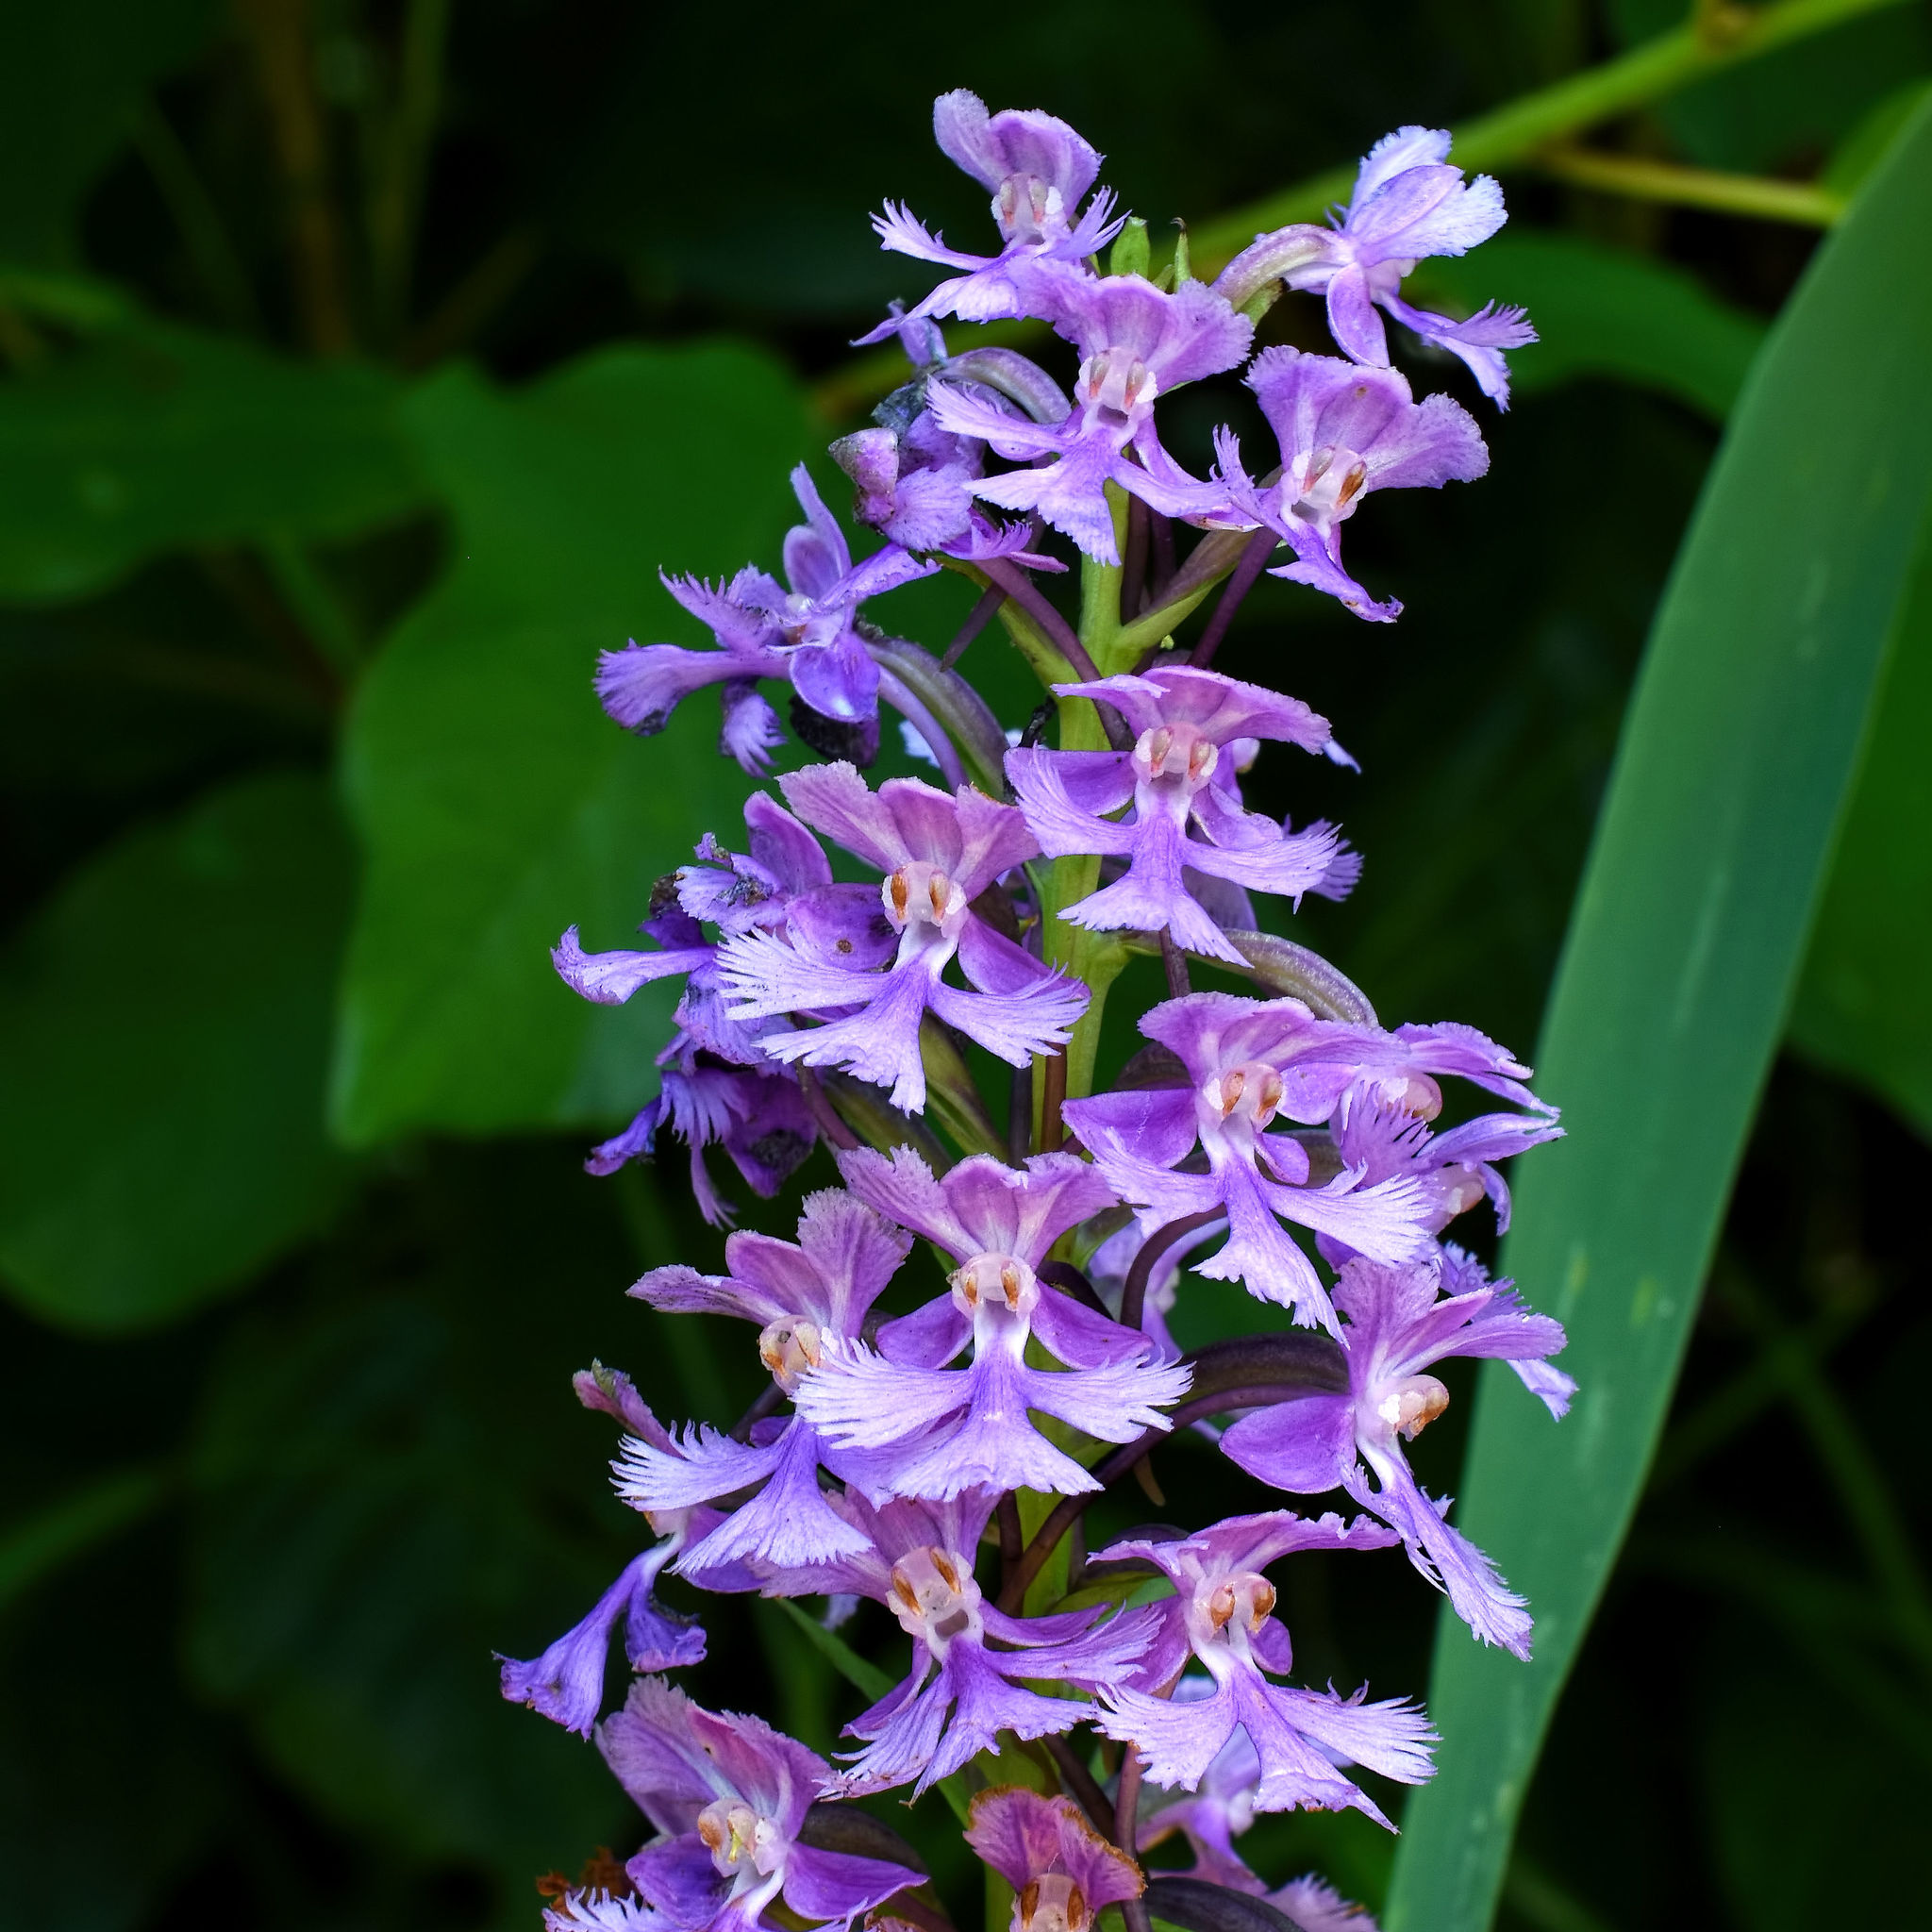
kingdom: Plantae
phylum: Tracheophyta
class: Liliopsida
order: Asparagales
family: Orchidaceae
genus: Platanthera
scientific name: Platanthera psycodes
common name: Lesser purple fringed orchid
